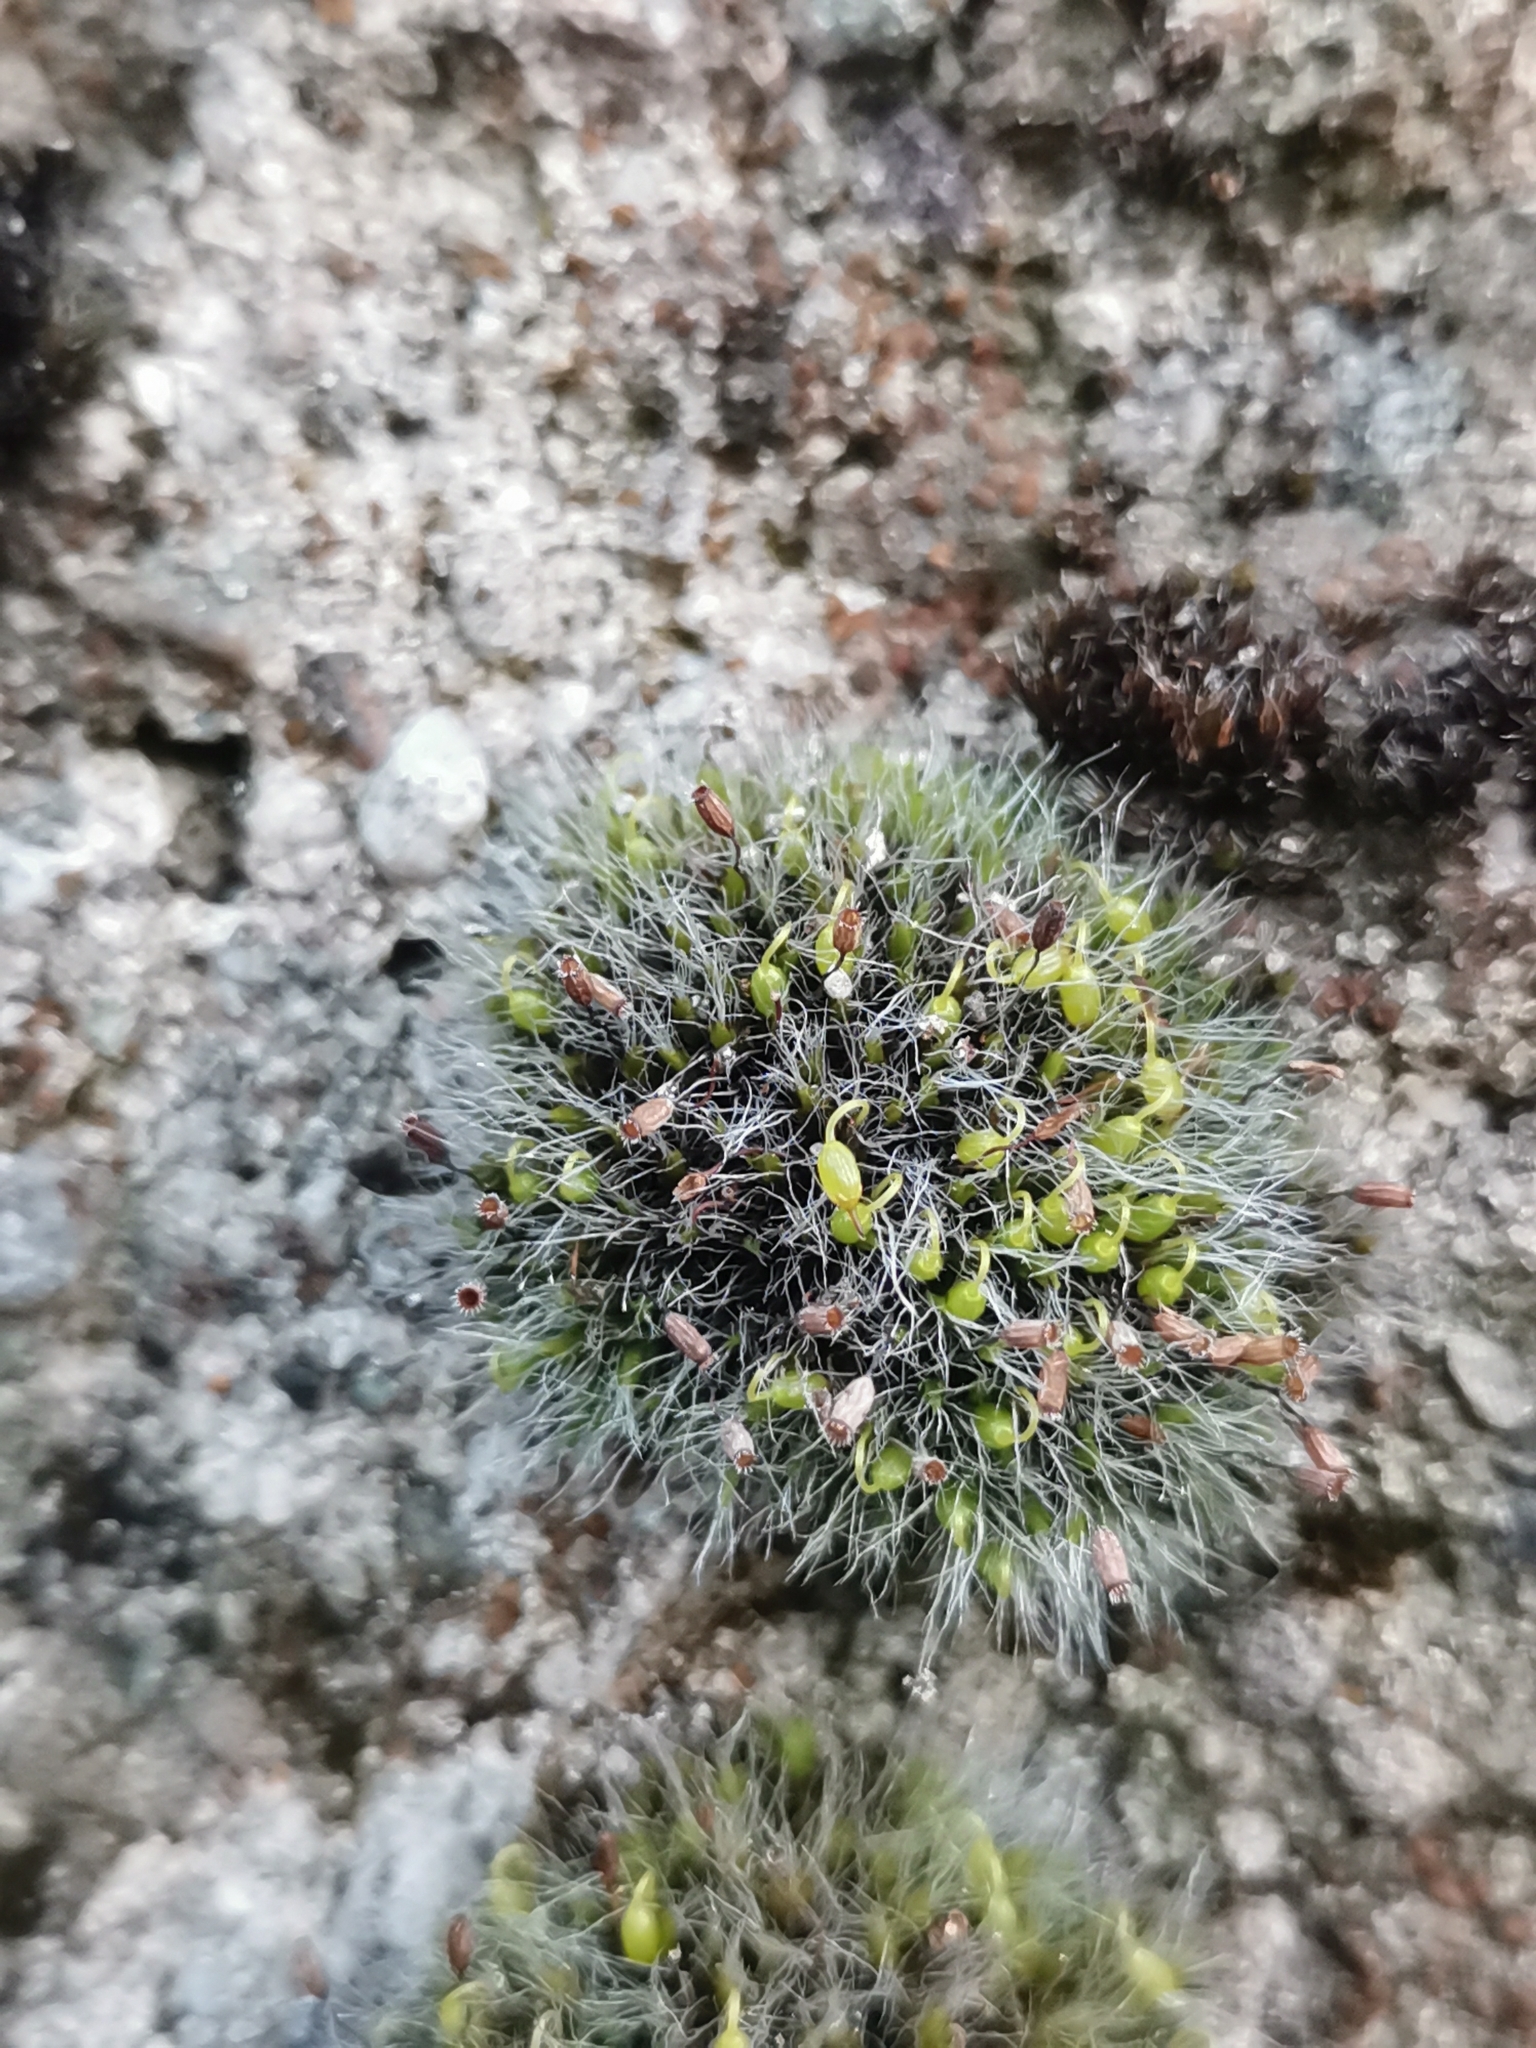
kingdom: Plantae
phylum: Bryophyta
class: Bryopsida
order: Grimmiales
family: Grimmiaceae
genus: Grimmia
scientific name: Grimmia pulvinata
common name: Grey-cushioned grimmia
